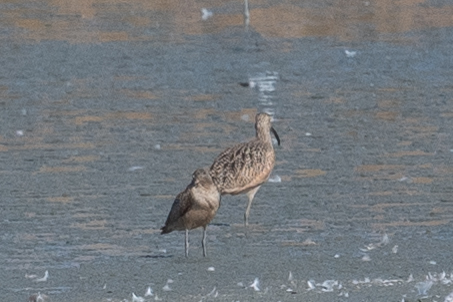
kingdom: Animalia
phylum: Chordata
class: Aves
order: Charadriiformes
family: Scolopacidae
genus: Numenius
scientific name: Numenius americanus
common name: Long-billed curlew
